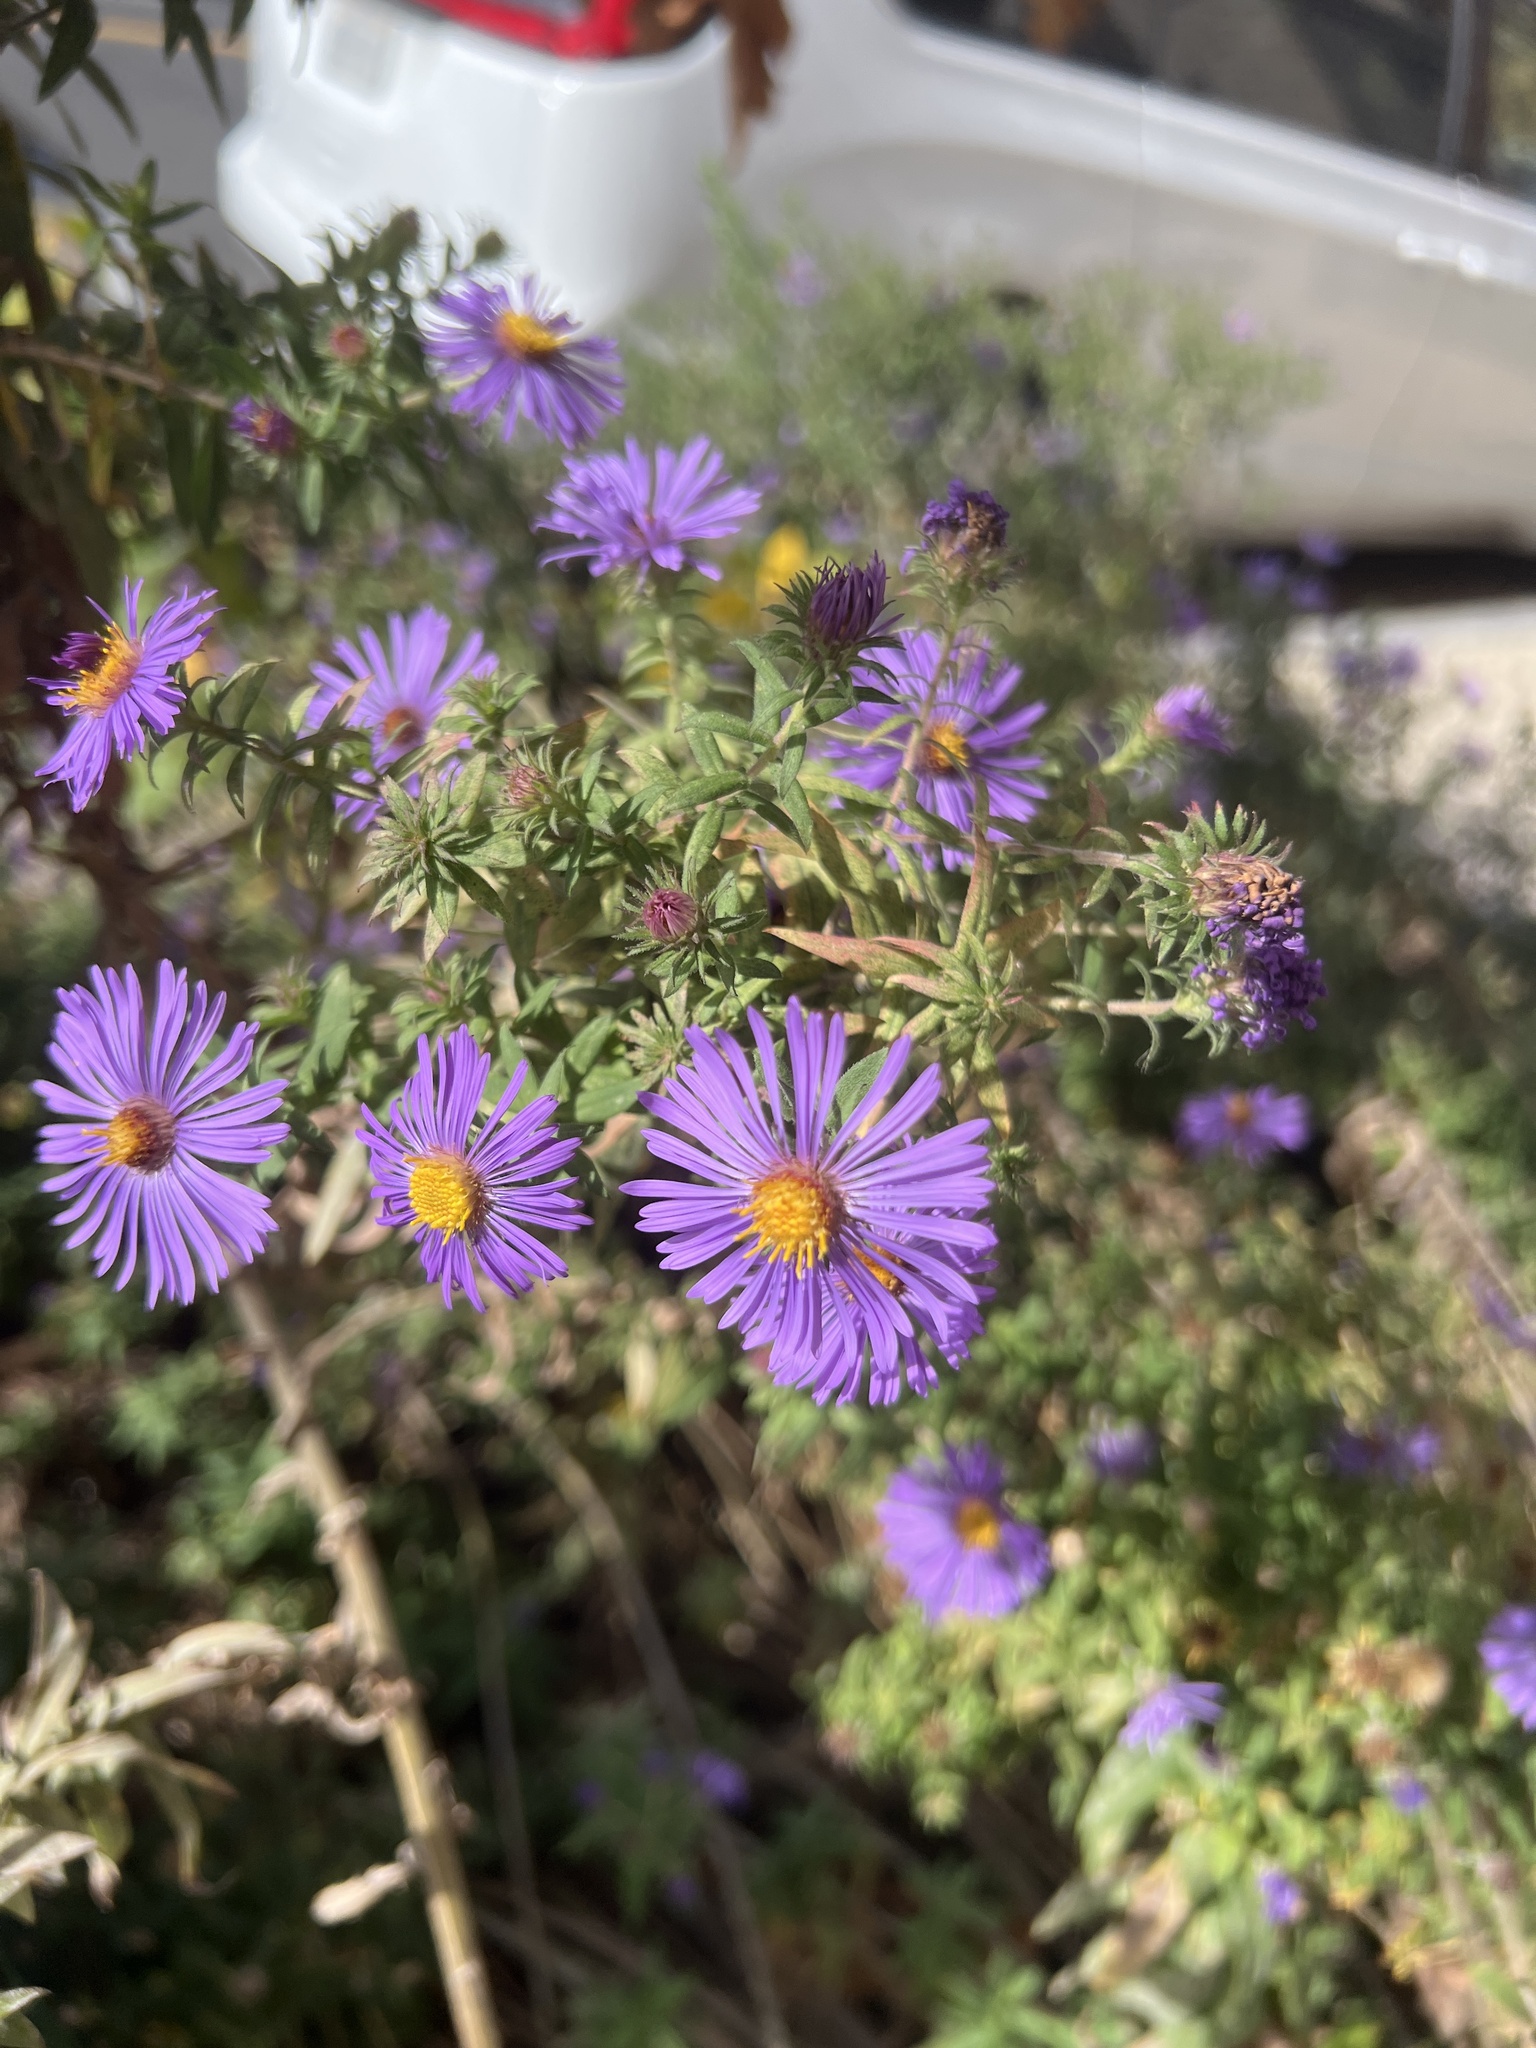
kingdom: Plantae
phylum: Tracheophyta
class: Magnoliopsida
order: Asterales
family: Asteraceae
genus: Symphyotrichum
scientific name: Symphyotrichum novae-angliae
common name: Michaelmas daisy
